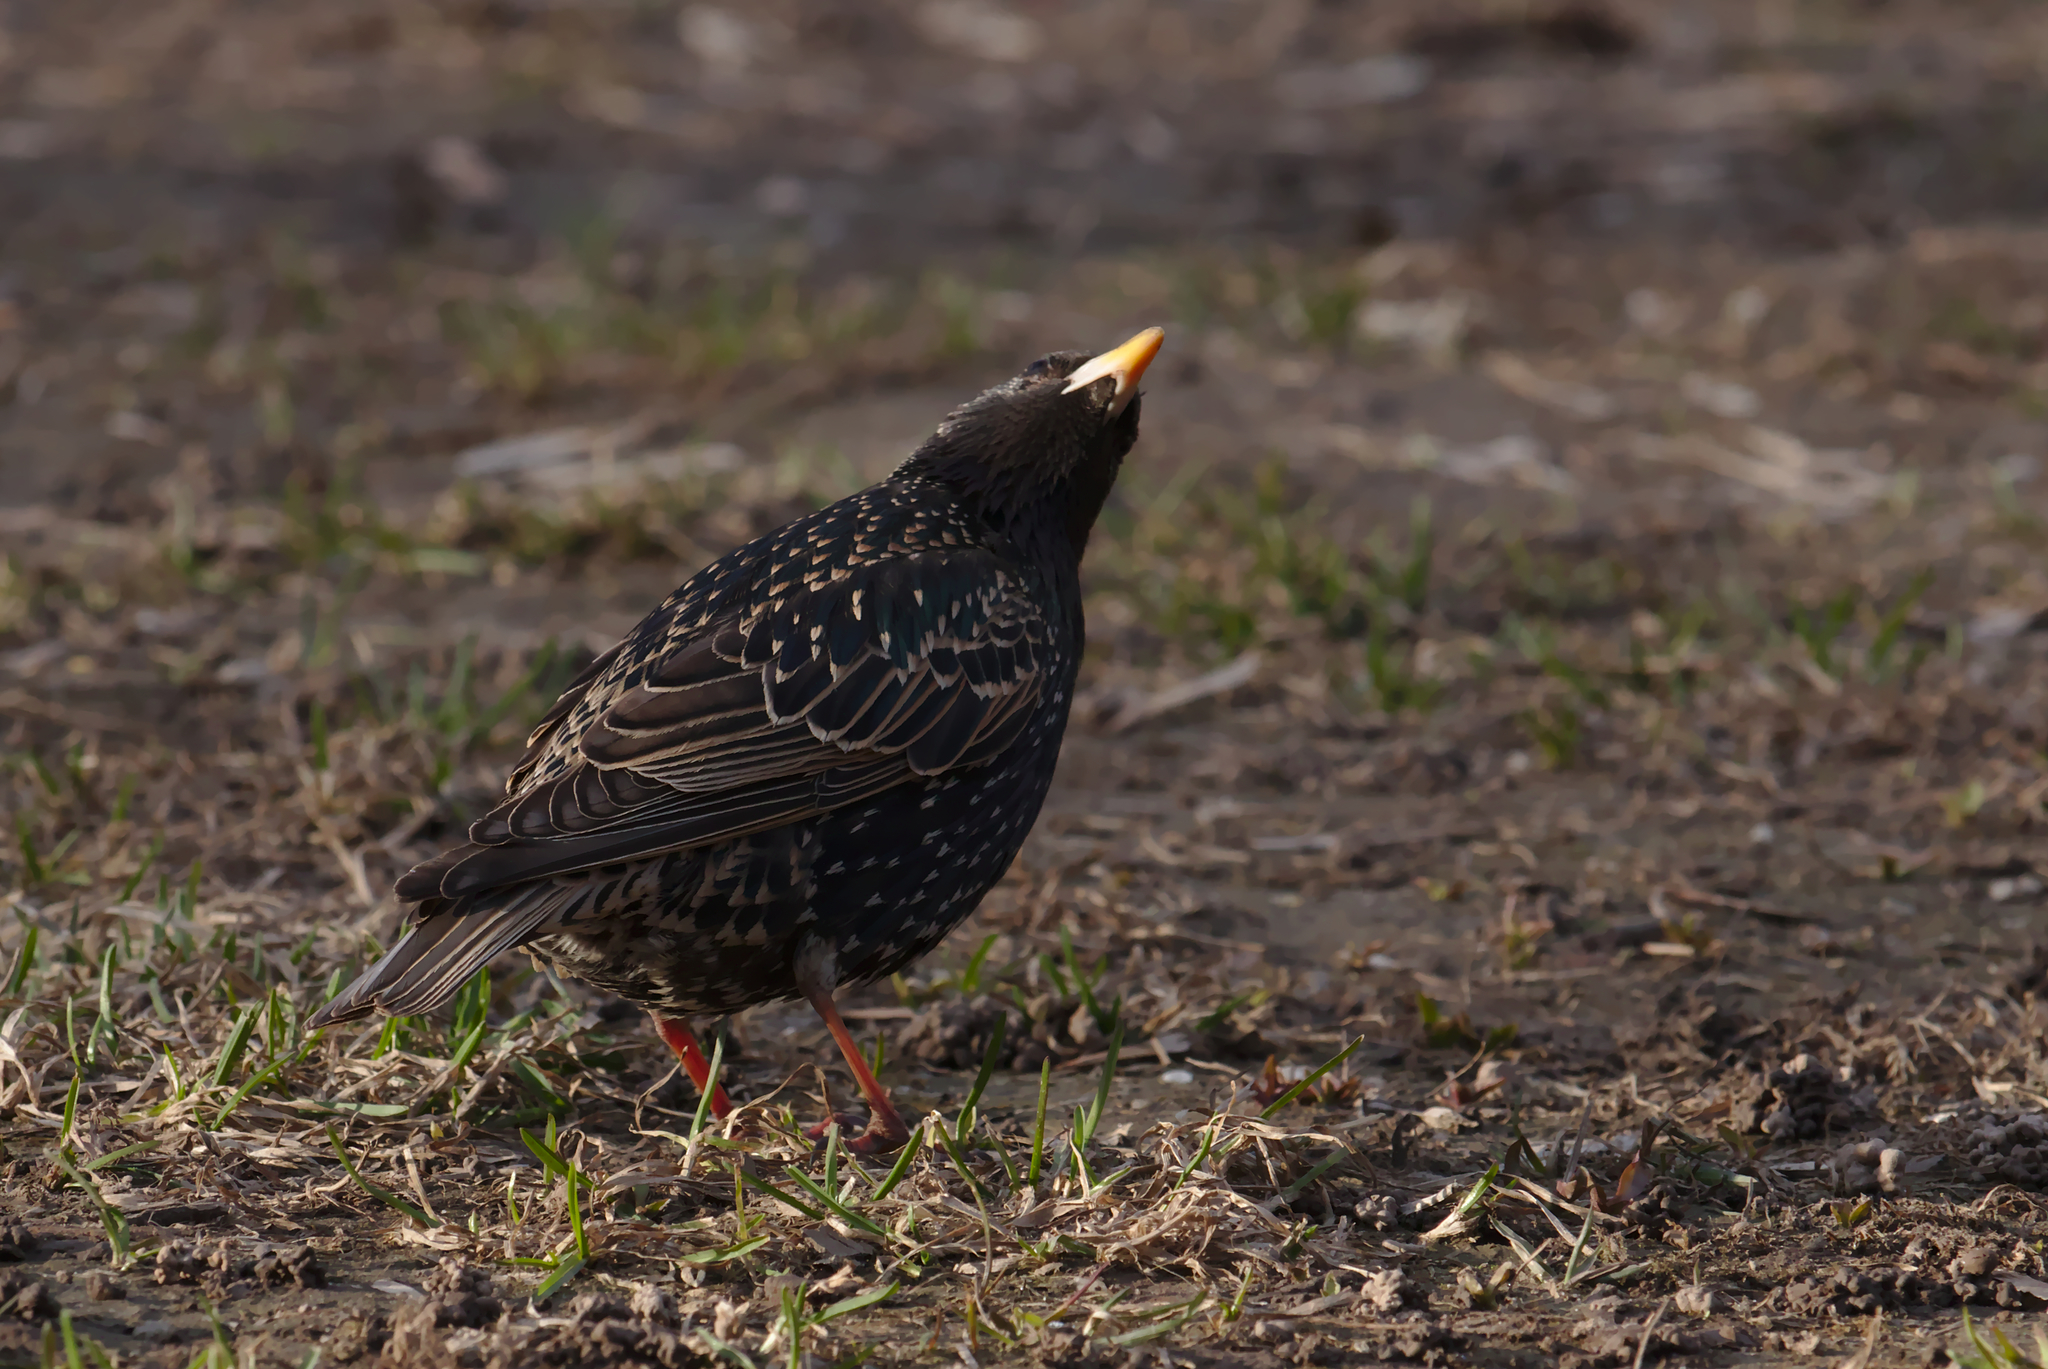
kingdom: Animalia
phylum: Chordata
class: Aves
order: Passeriformes
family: Sturnidae
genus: Sturnus
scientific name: Sturnus vulgaris
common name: Common starling
